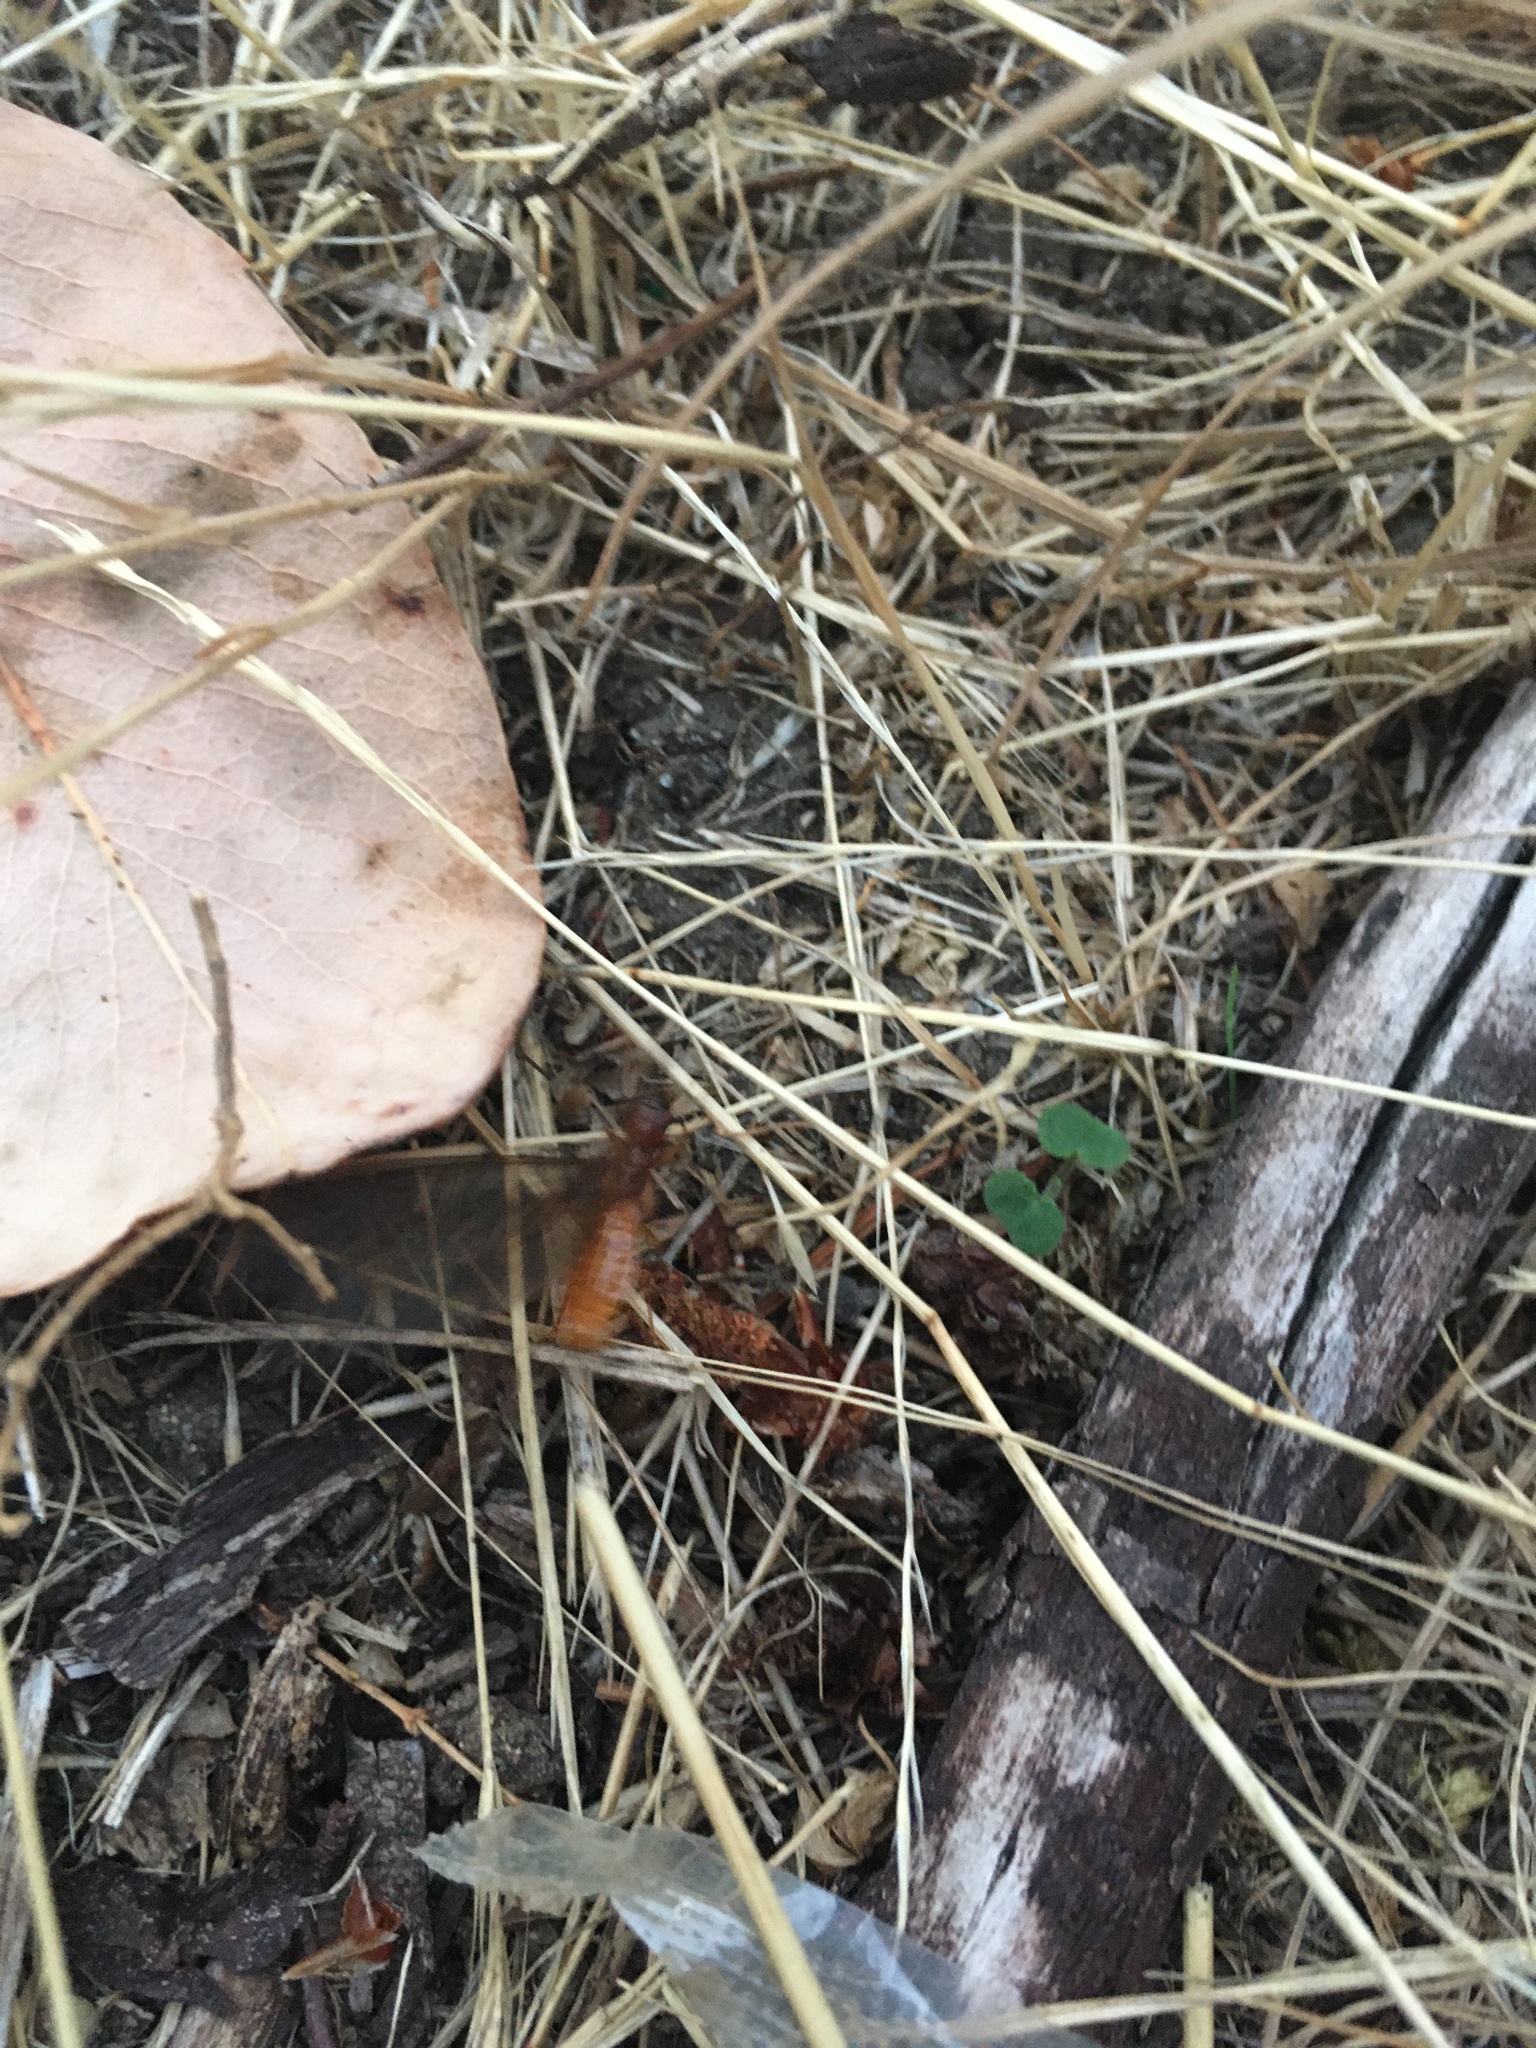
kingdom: Animalia
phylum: Arthropoda
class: Insecta
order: Blattodea
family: Archotermopsidae
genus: Zootermopsis
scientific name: Zootermopsis angusticollis
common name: Rottenwood termite
